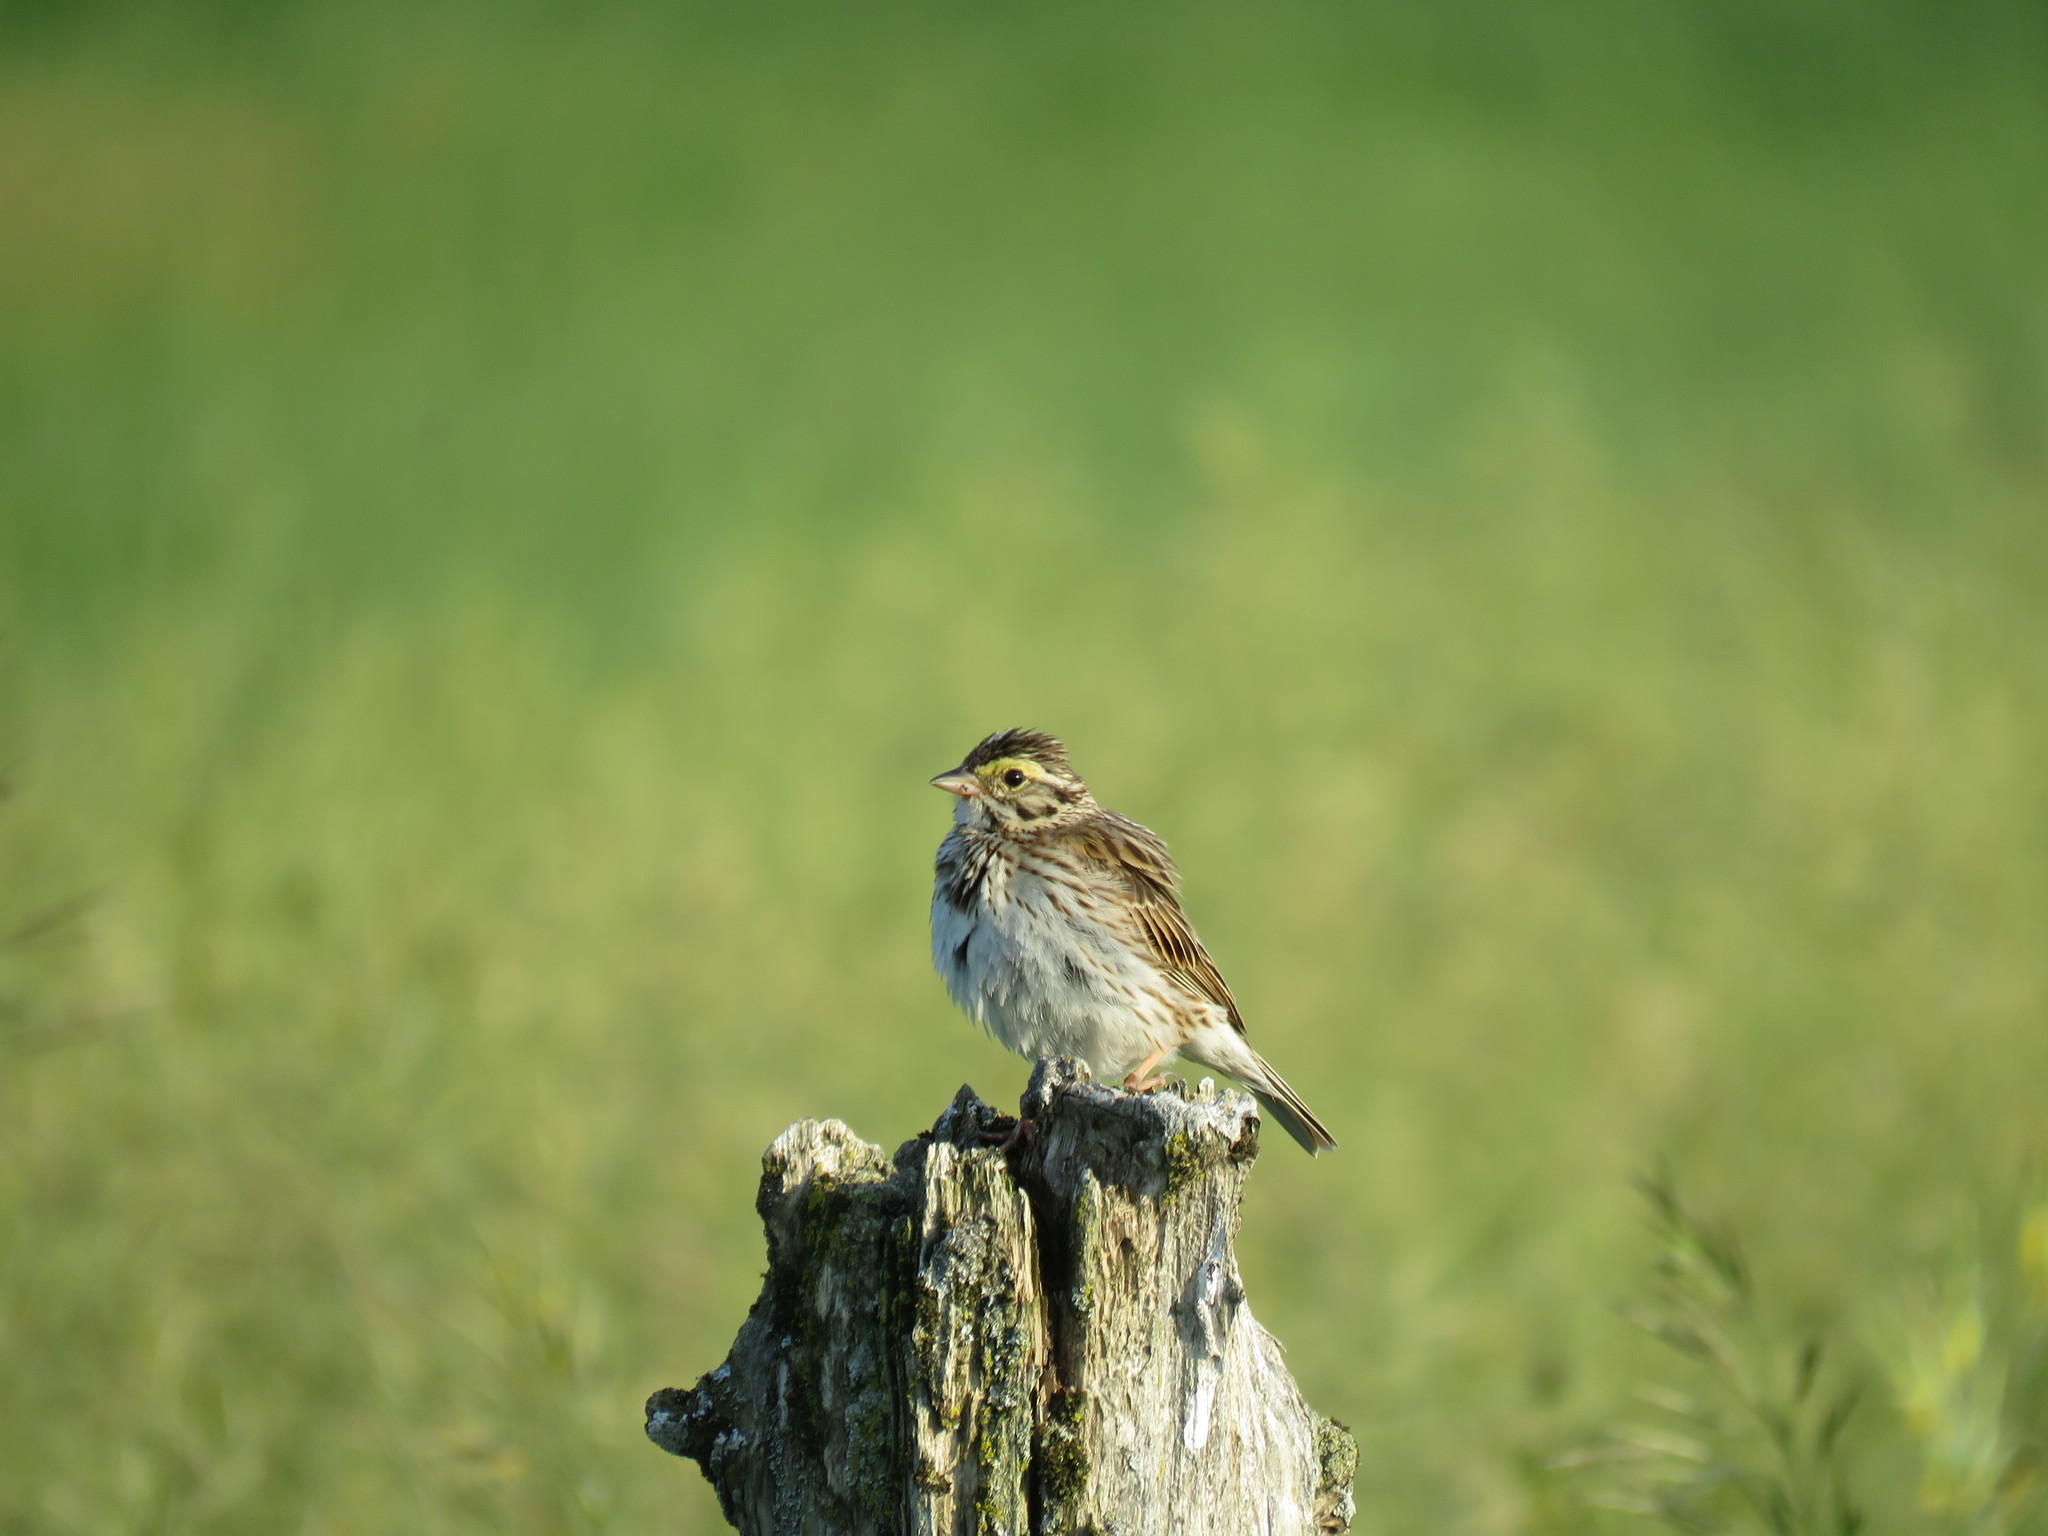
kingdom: Animalia
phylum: Chordata
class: Aves
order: Passeriformes
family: Passerellidae
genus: Passerculus
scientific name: Passerculus sandwichensis
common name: Savannah sparrow
